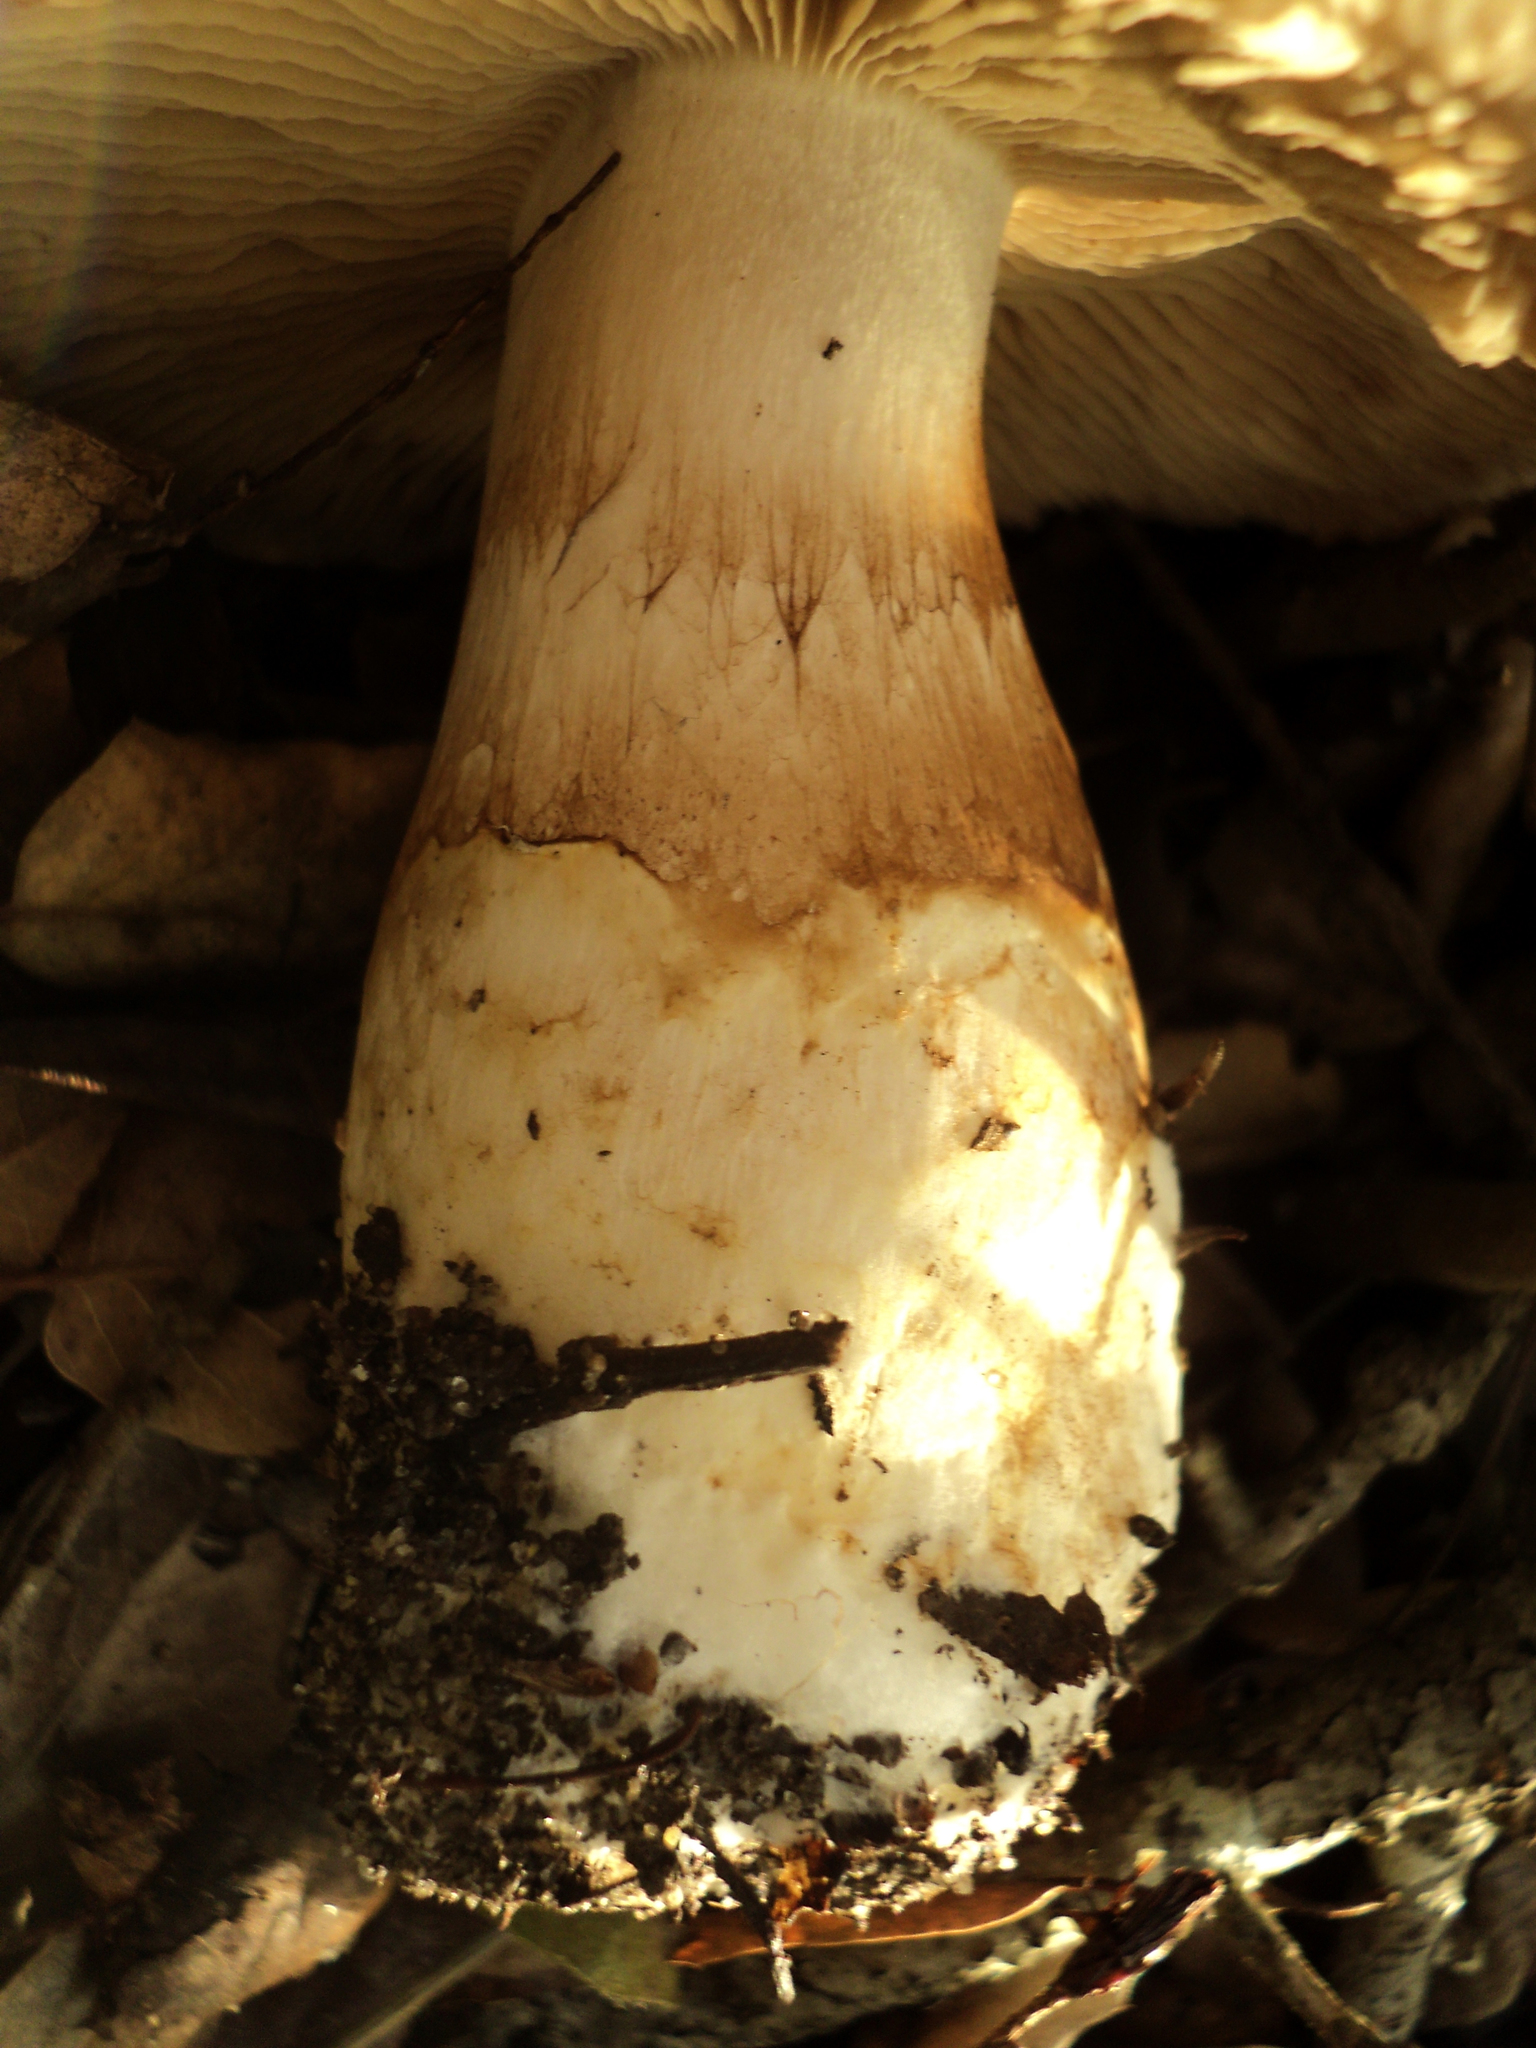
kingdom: Fungi
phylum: Basidiomycota
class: Agaricomycetes
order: Agaricales
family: Cortinariaceae
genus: Phlegmacium
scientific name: Phlegmacium albofragrans
